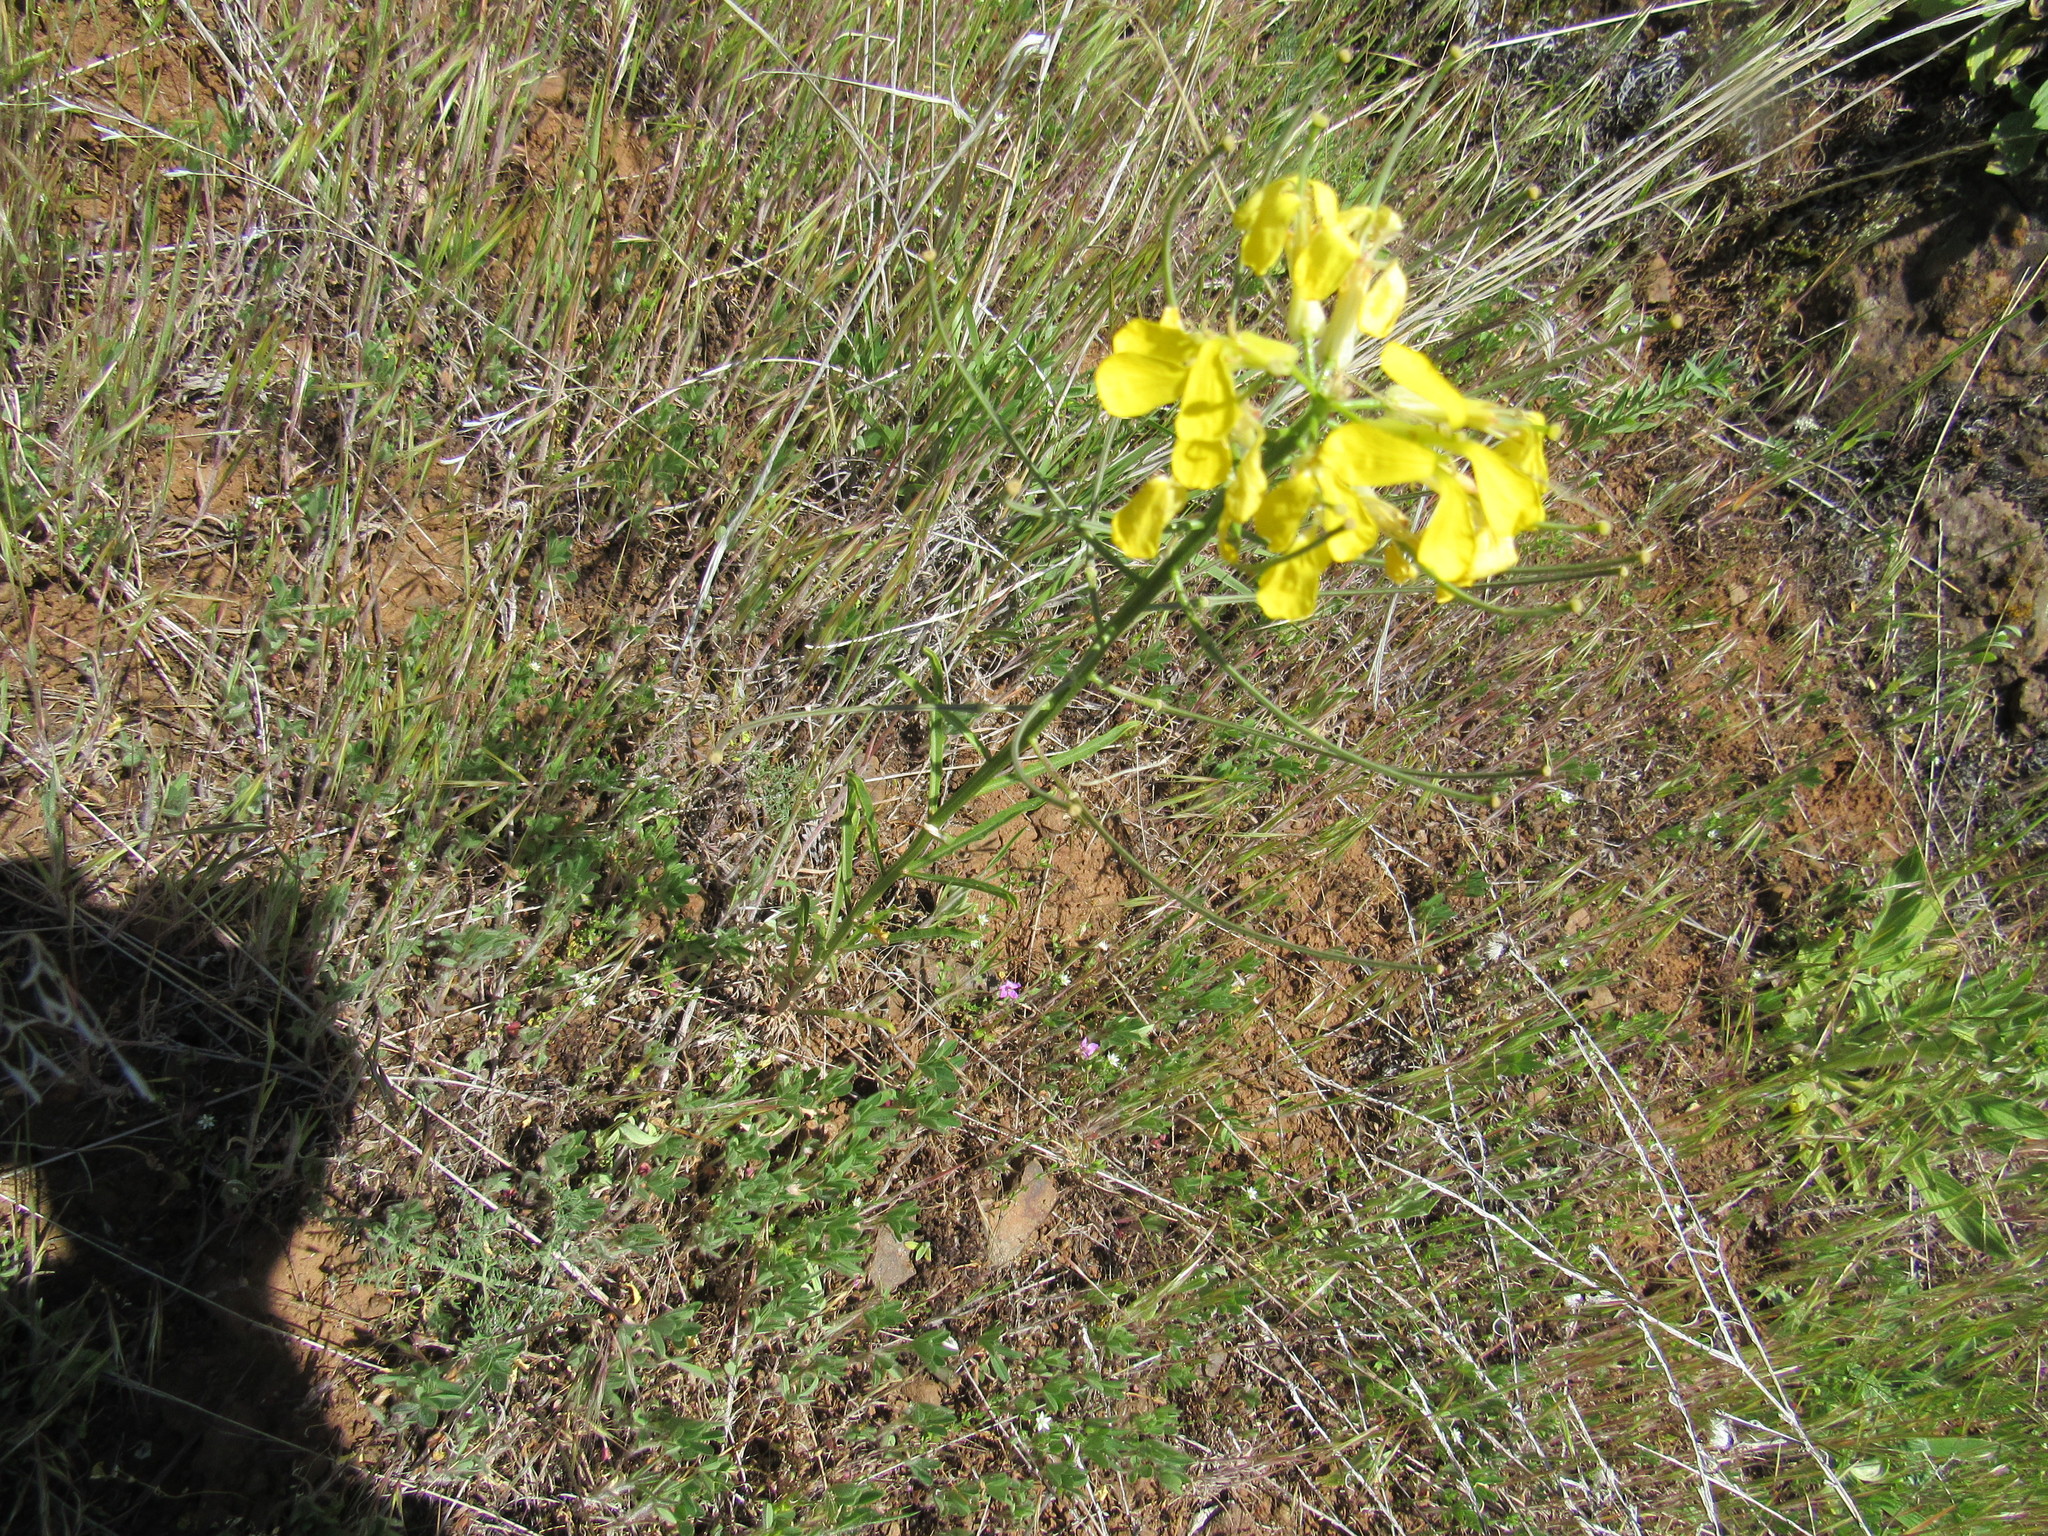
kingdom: Plantae
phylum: Tracheophyta
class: Magnoliopsida
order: Brassicales
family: Brassicaceae
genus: Erysimum
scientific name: Erysimum capitatum
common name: Western wallflower
